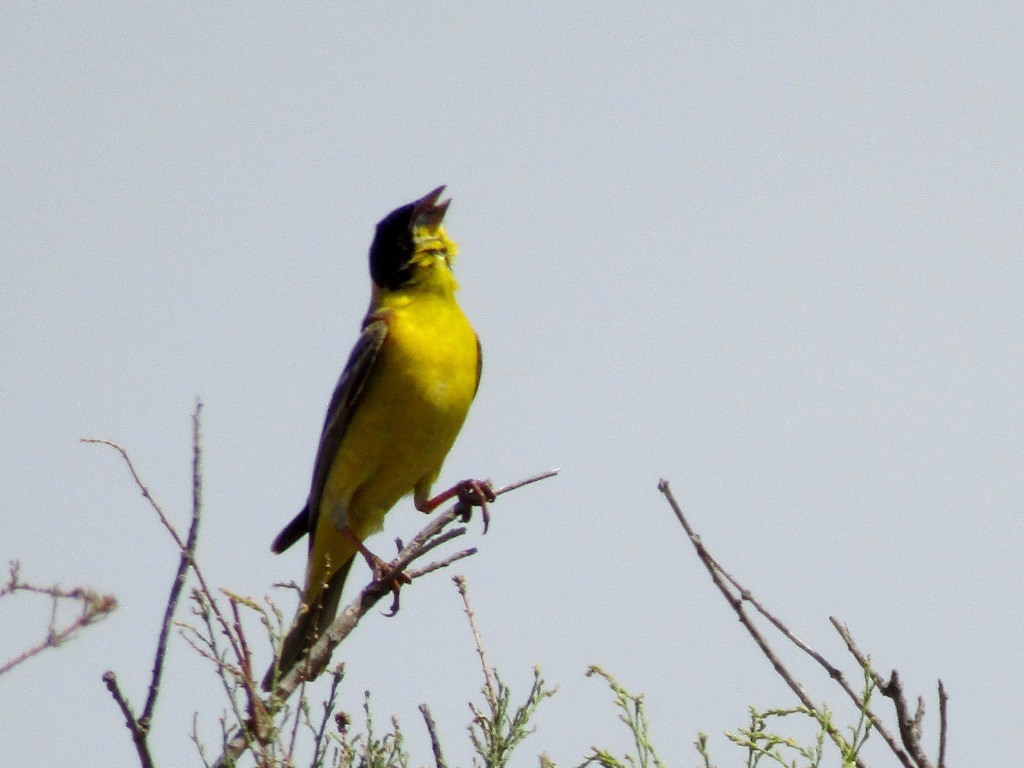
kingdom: Animalia
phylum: Chordata
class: Aves
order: Passeriformes
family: Emberizidae
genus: Emberiza
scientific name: Emberiza melanocephala
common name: Black-headed bunting
